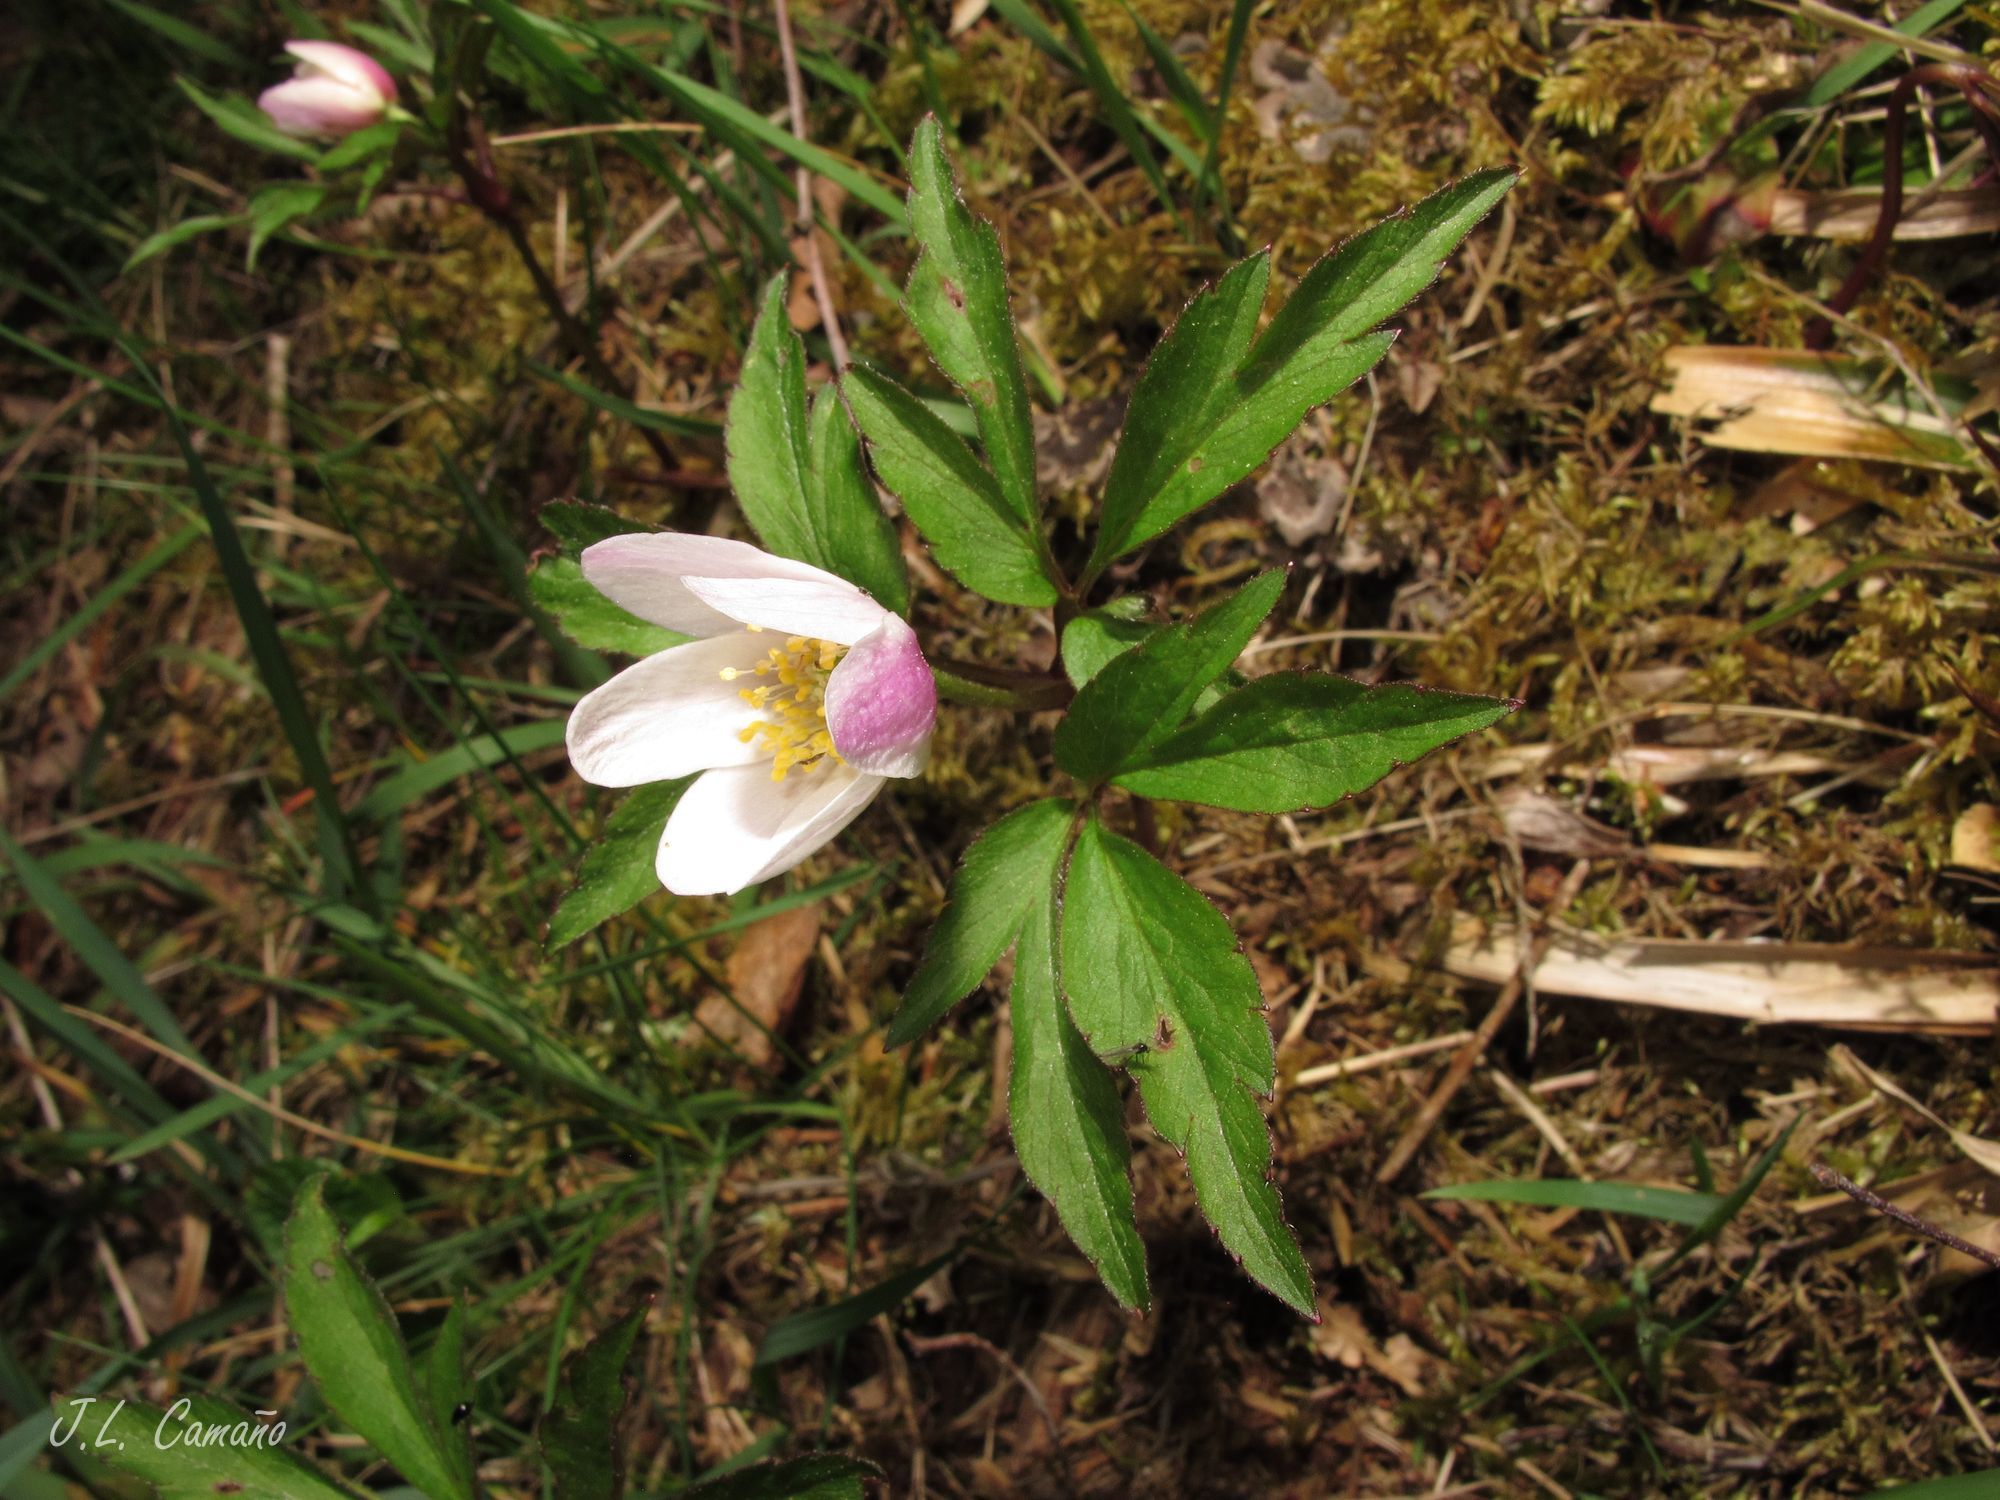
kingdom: Plantae
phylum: Tracheophyta
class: Magnoliopsida
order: Ranunculales
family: Ranunculaceae
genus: Anemone
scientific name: Anemone nemorosa
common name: Wood anemone
